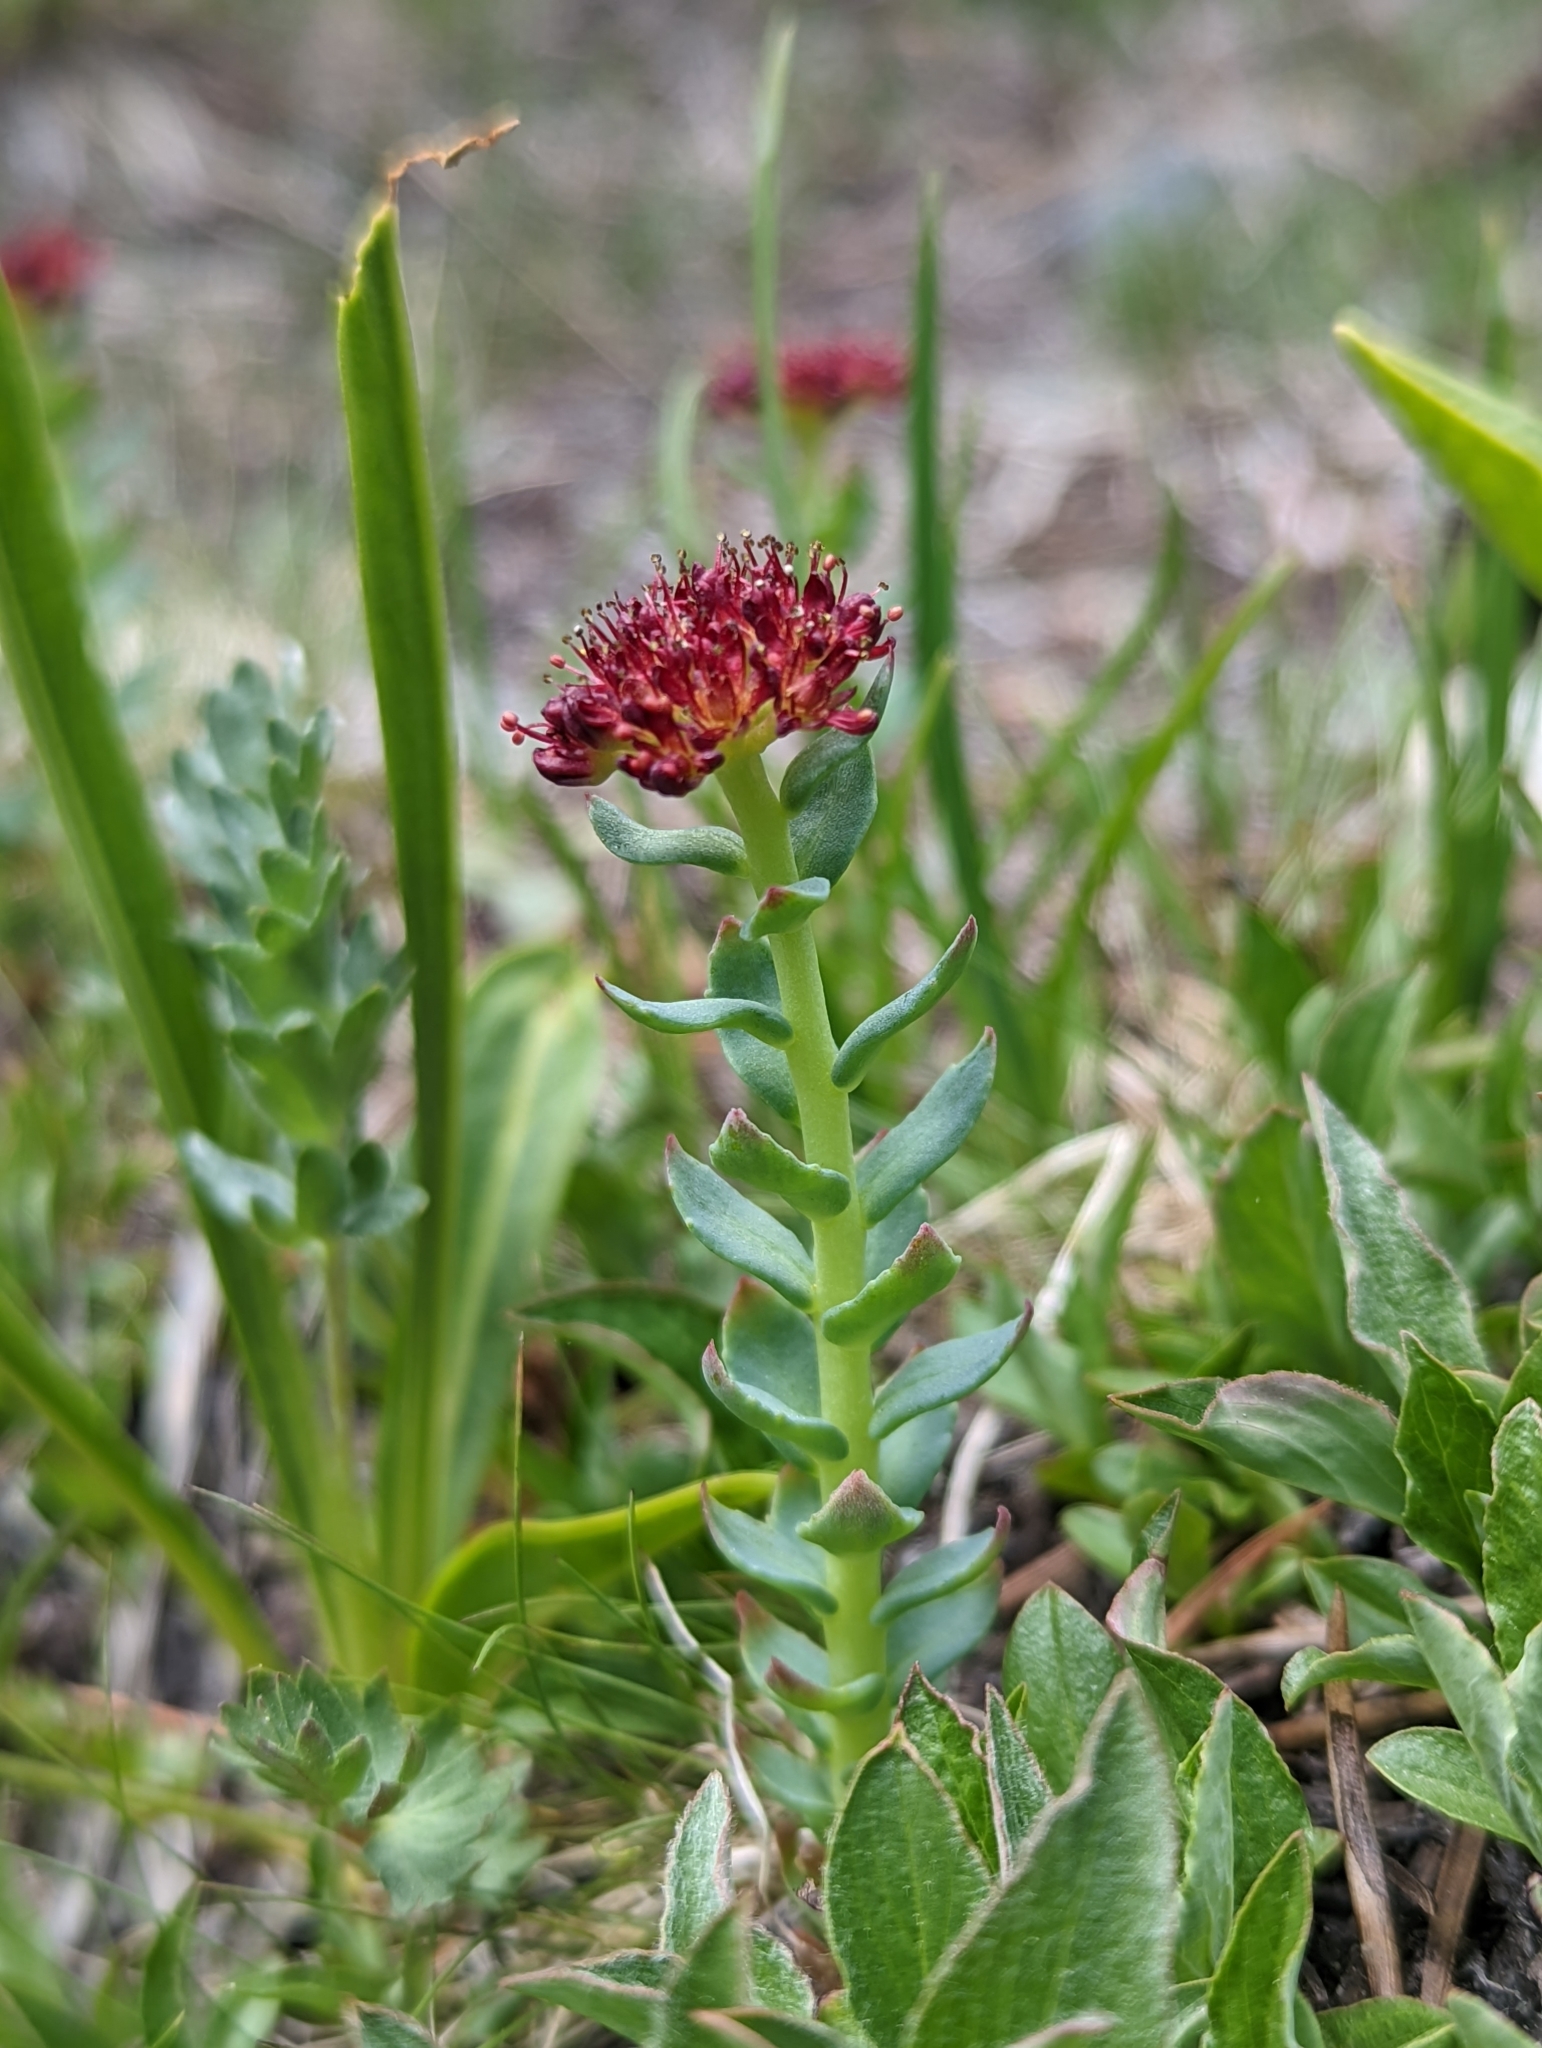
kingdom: Plantae
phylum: Tracheophyta
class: Magnoliopsida
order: Saxifragales
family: Crassulaceae
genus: Rhodiola
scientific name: Rhodiola integrifolia
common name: Western roseroot
